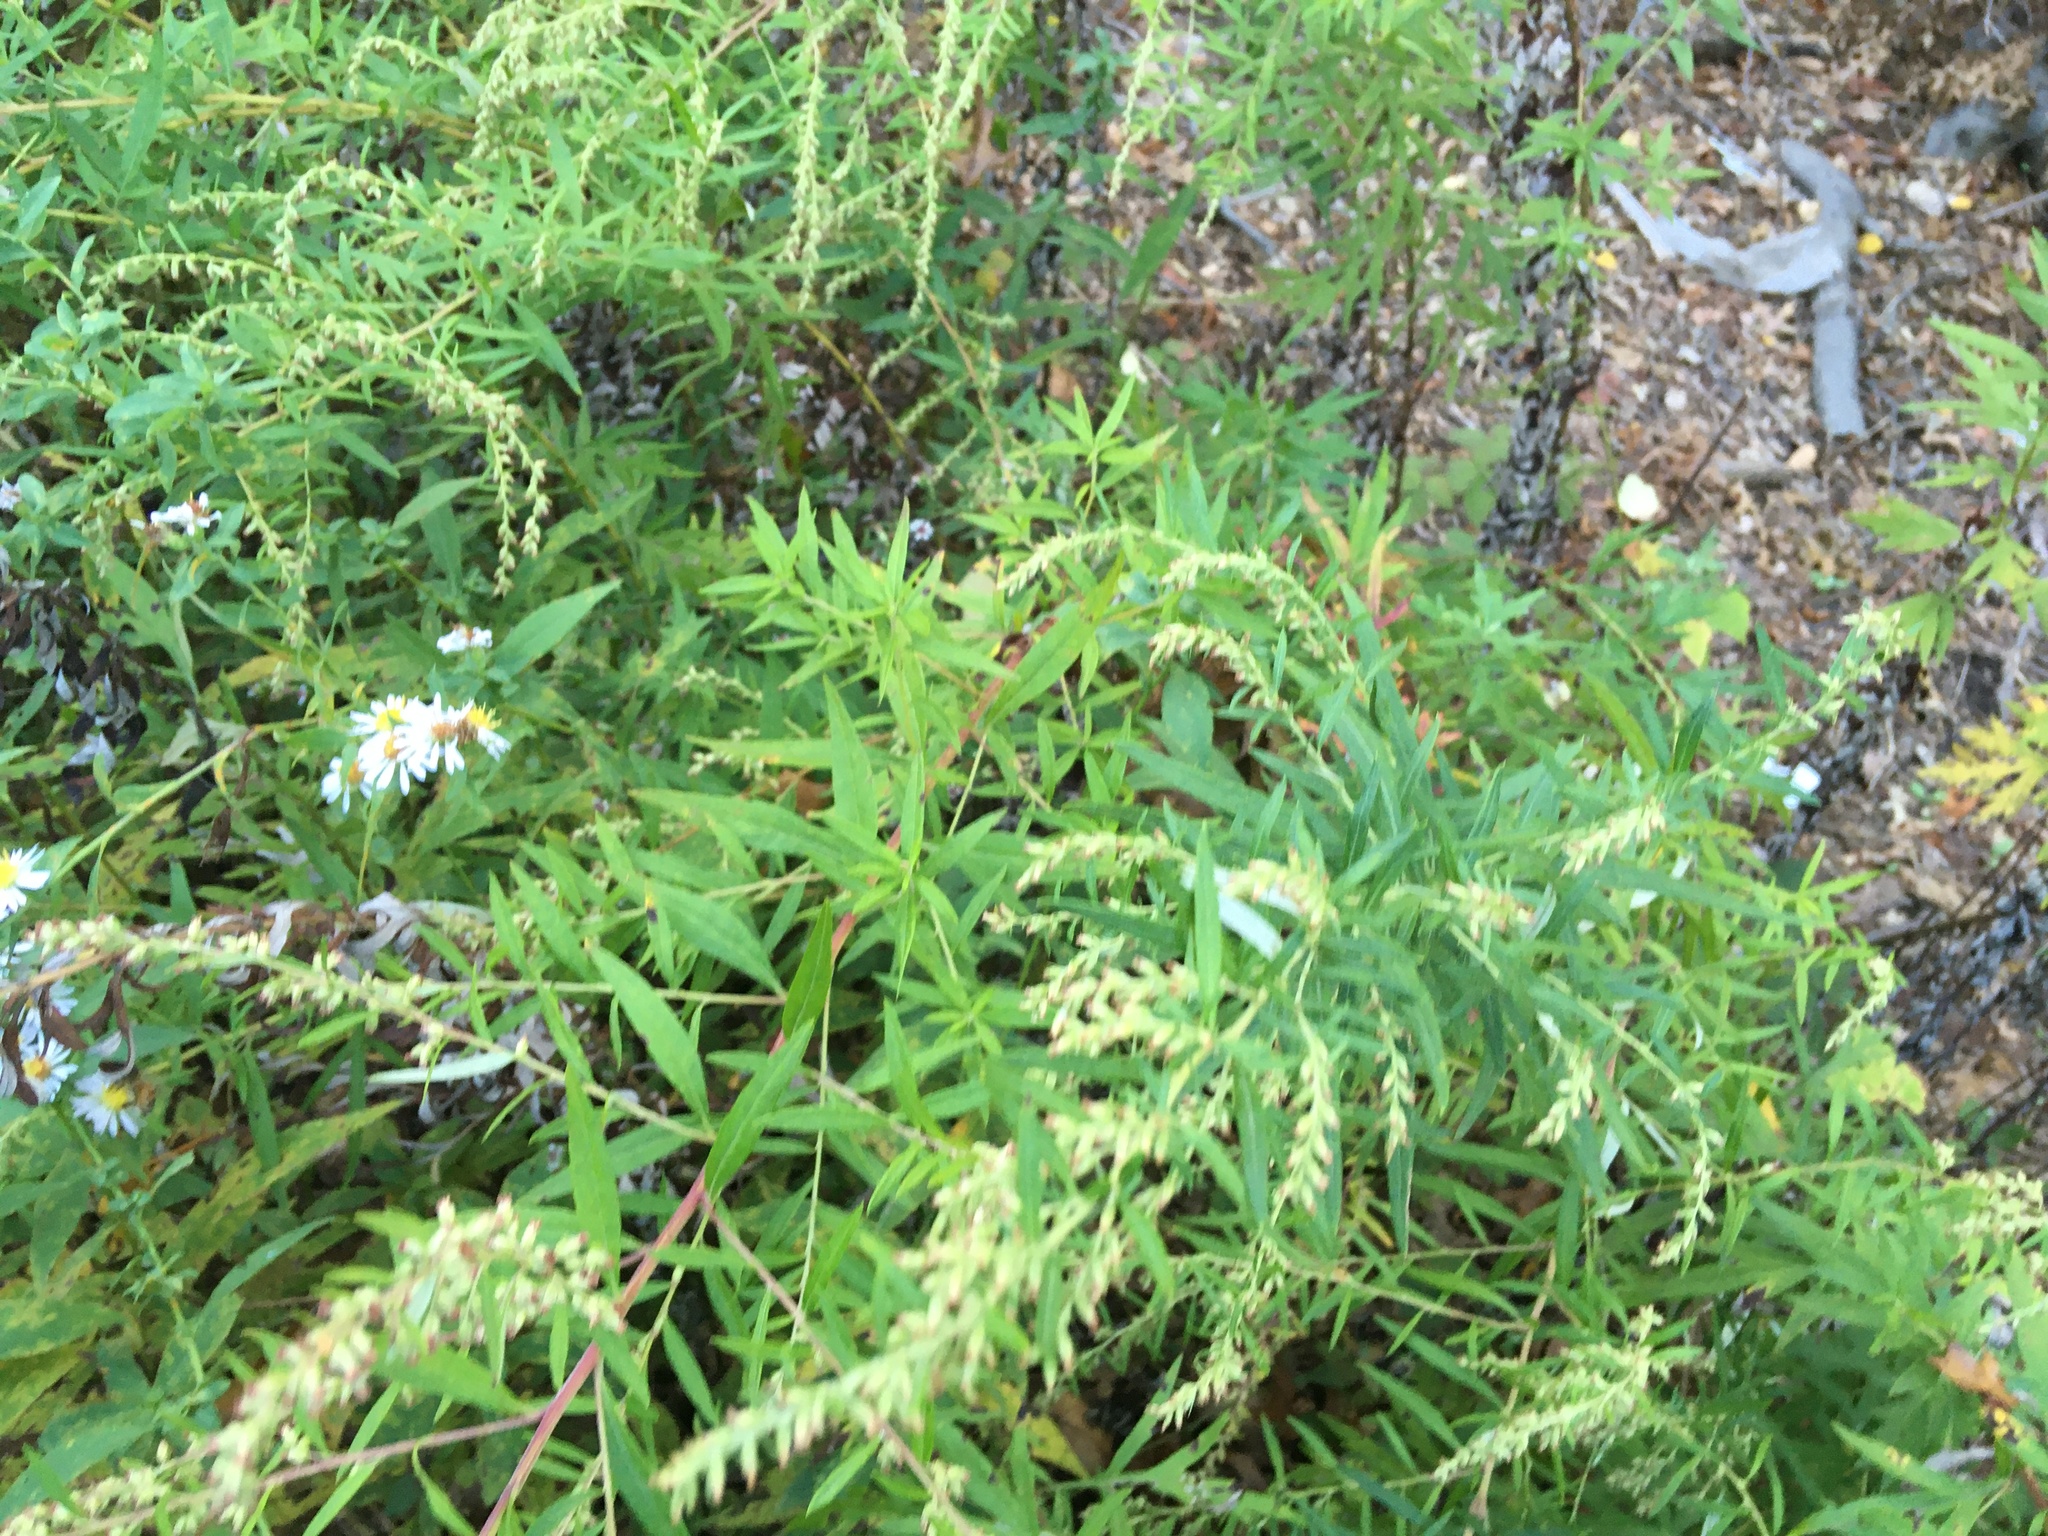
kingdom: Plantae
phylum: Tracheophyta
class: Magnoliopsida
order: Asterales
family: Asteraceae
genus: Artemisia
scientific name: Artemisia vulgaris
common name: Mugwort
